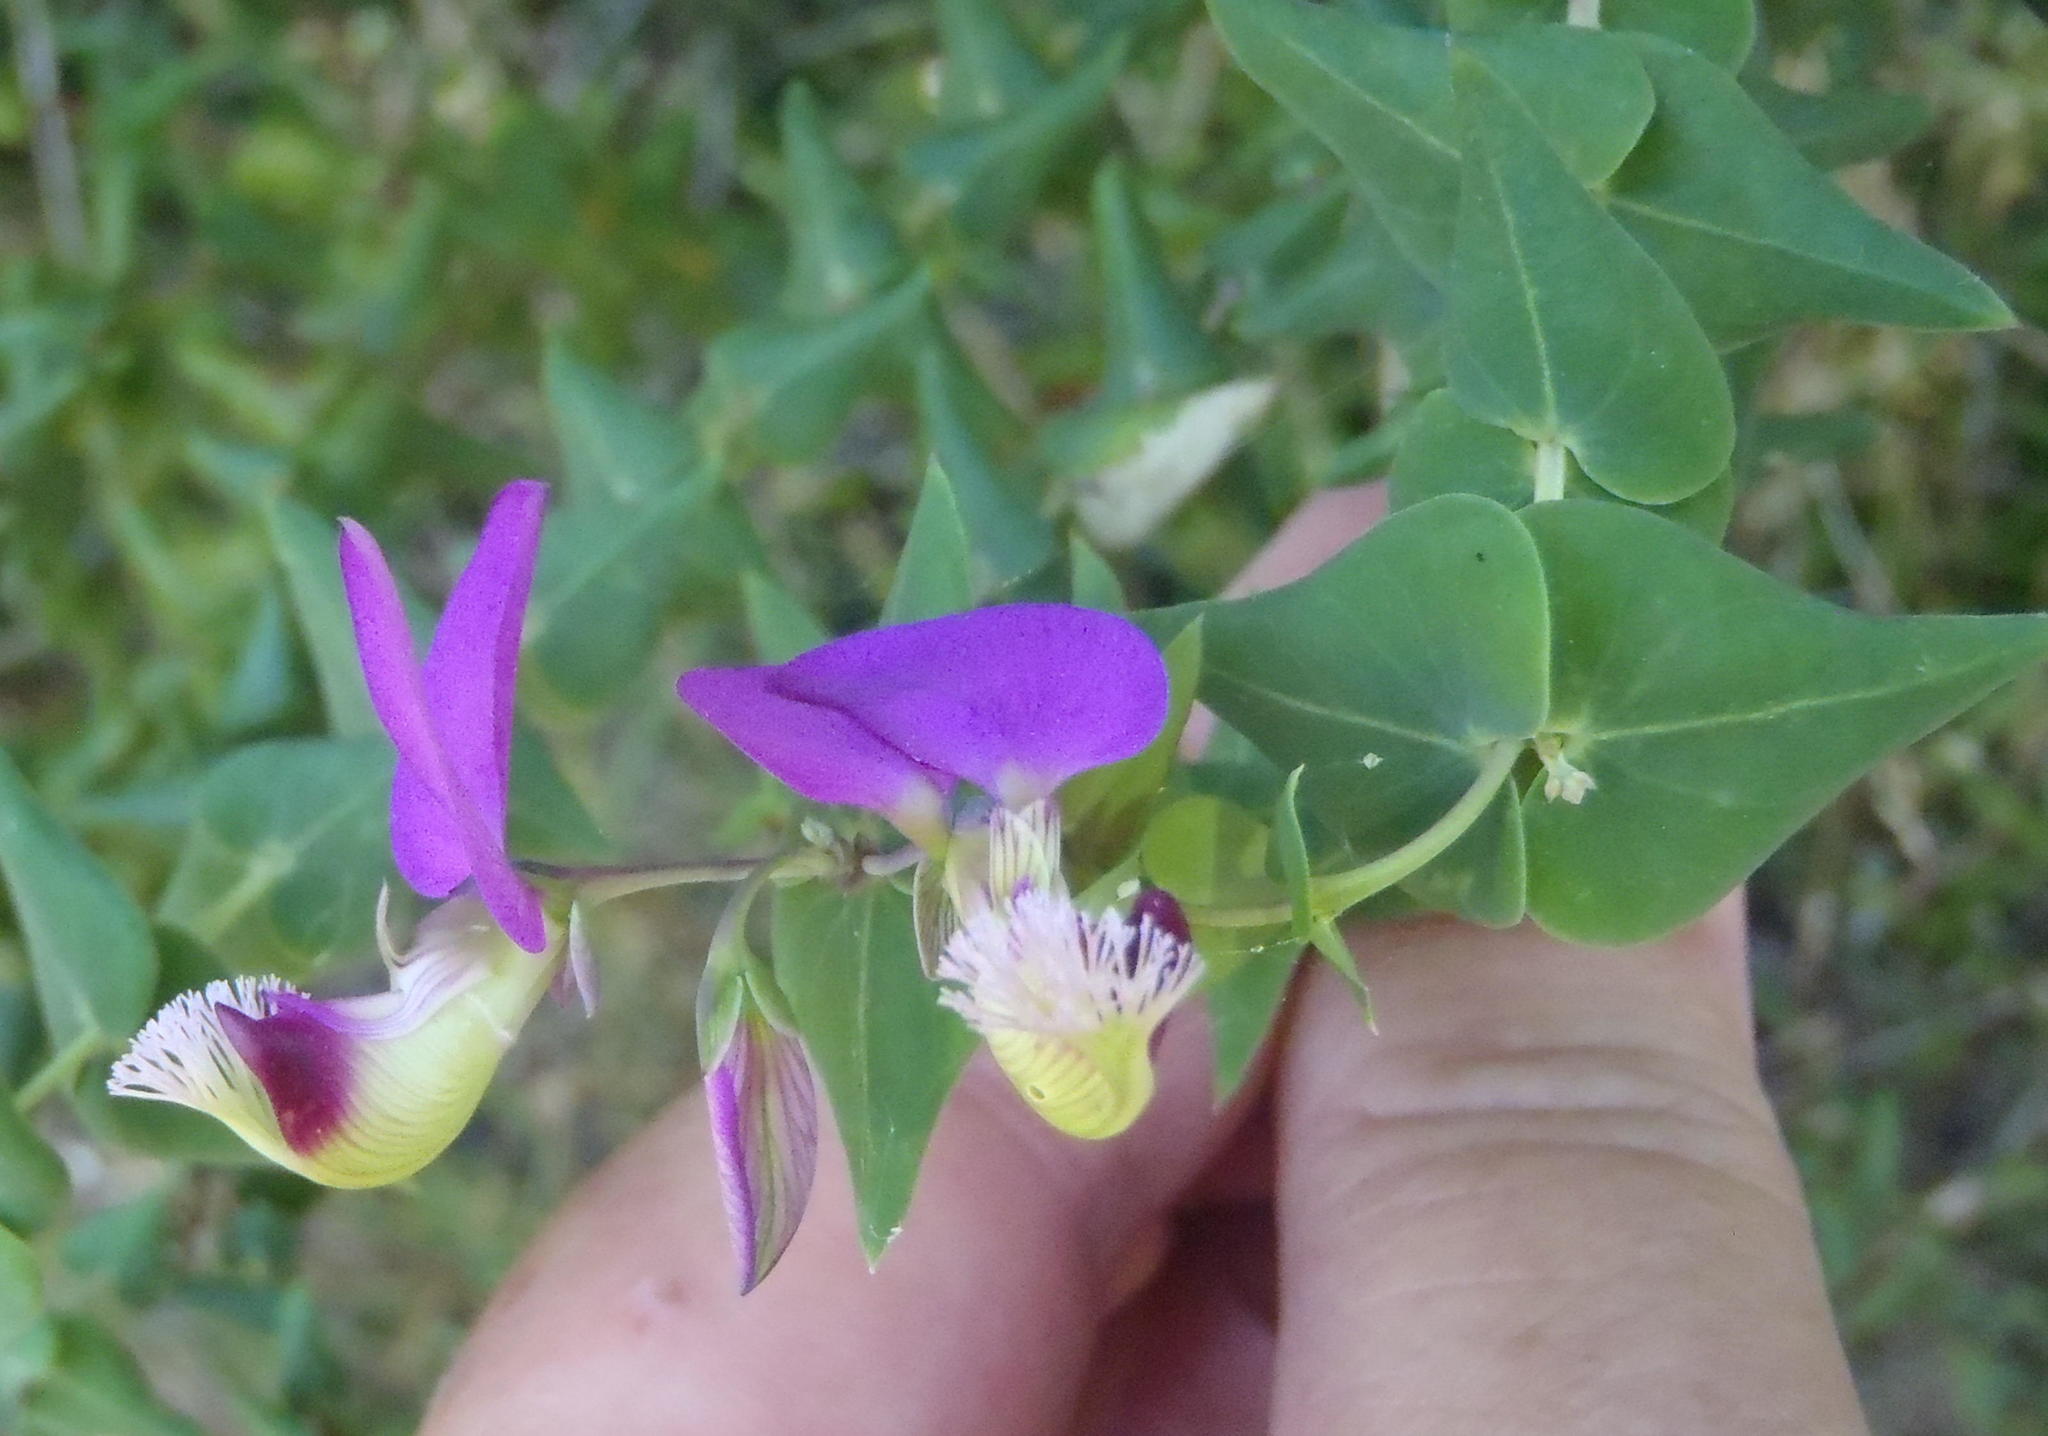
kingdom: Plantae
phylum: Tracheophyta
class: Magnoliopsida
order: Fabales
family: Polygalaceae
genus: Polygala
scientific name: Polygala fruticosa
